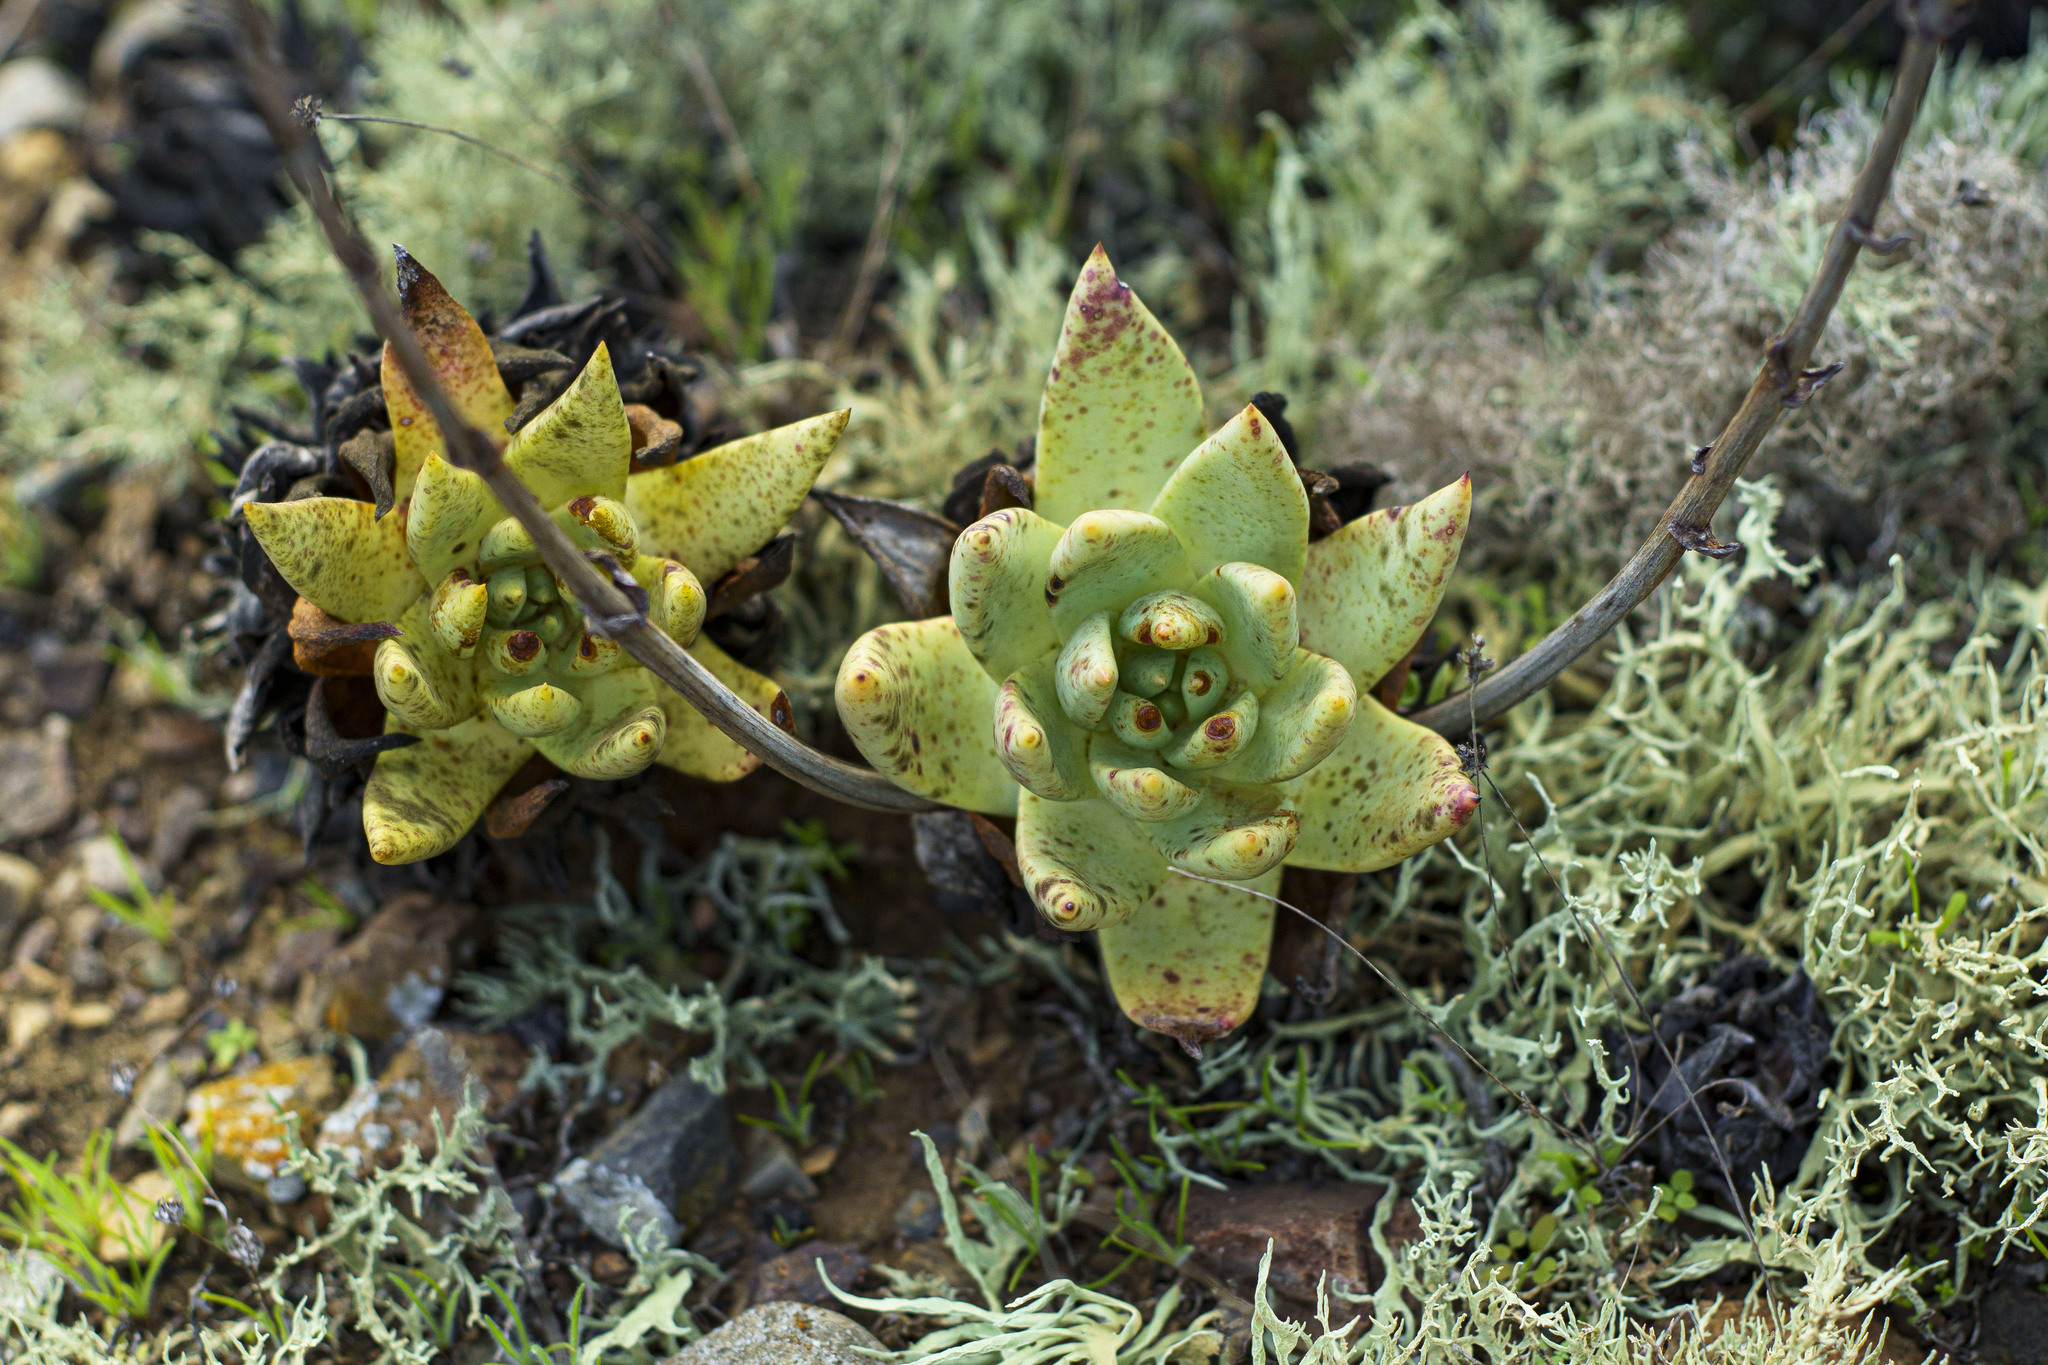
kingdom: Plantae
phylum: Tracheophyta
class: Magnoliopsida
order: Saxifragales
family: Crassulaceae
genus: Dudleya
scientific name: Dudleya
